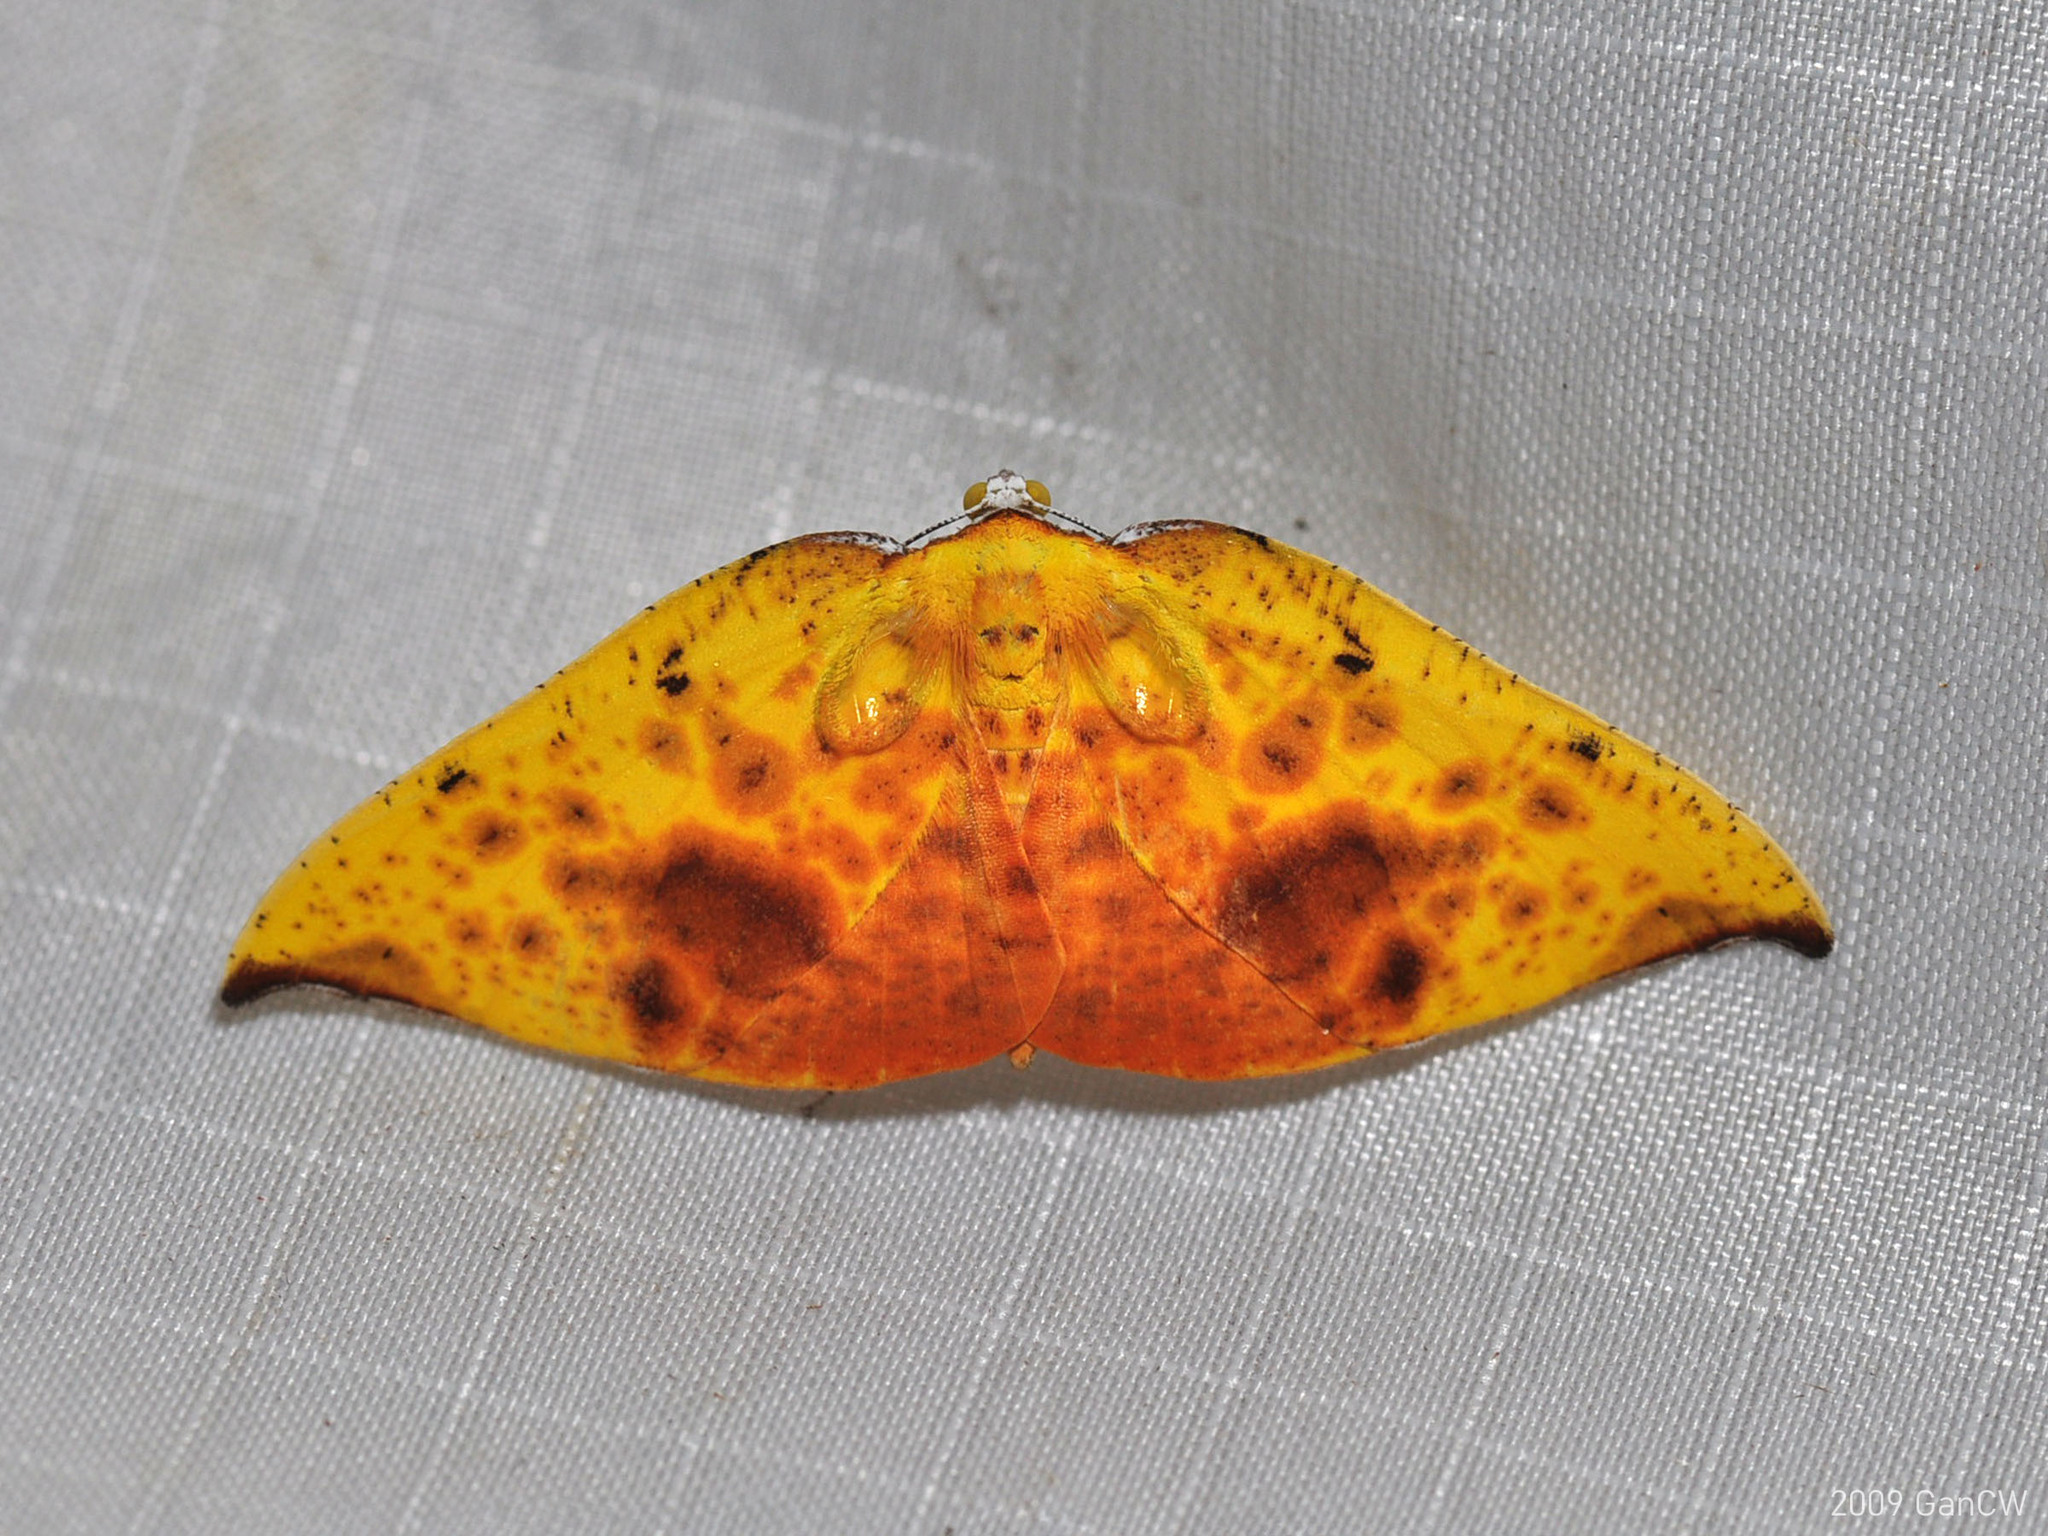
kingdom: Animalia
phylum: Arthropoda
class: Insecta
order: Lepidoptera
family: Geometridae
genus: Corymica
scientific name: Corymica fulvimaculata
